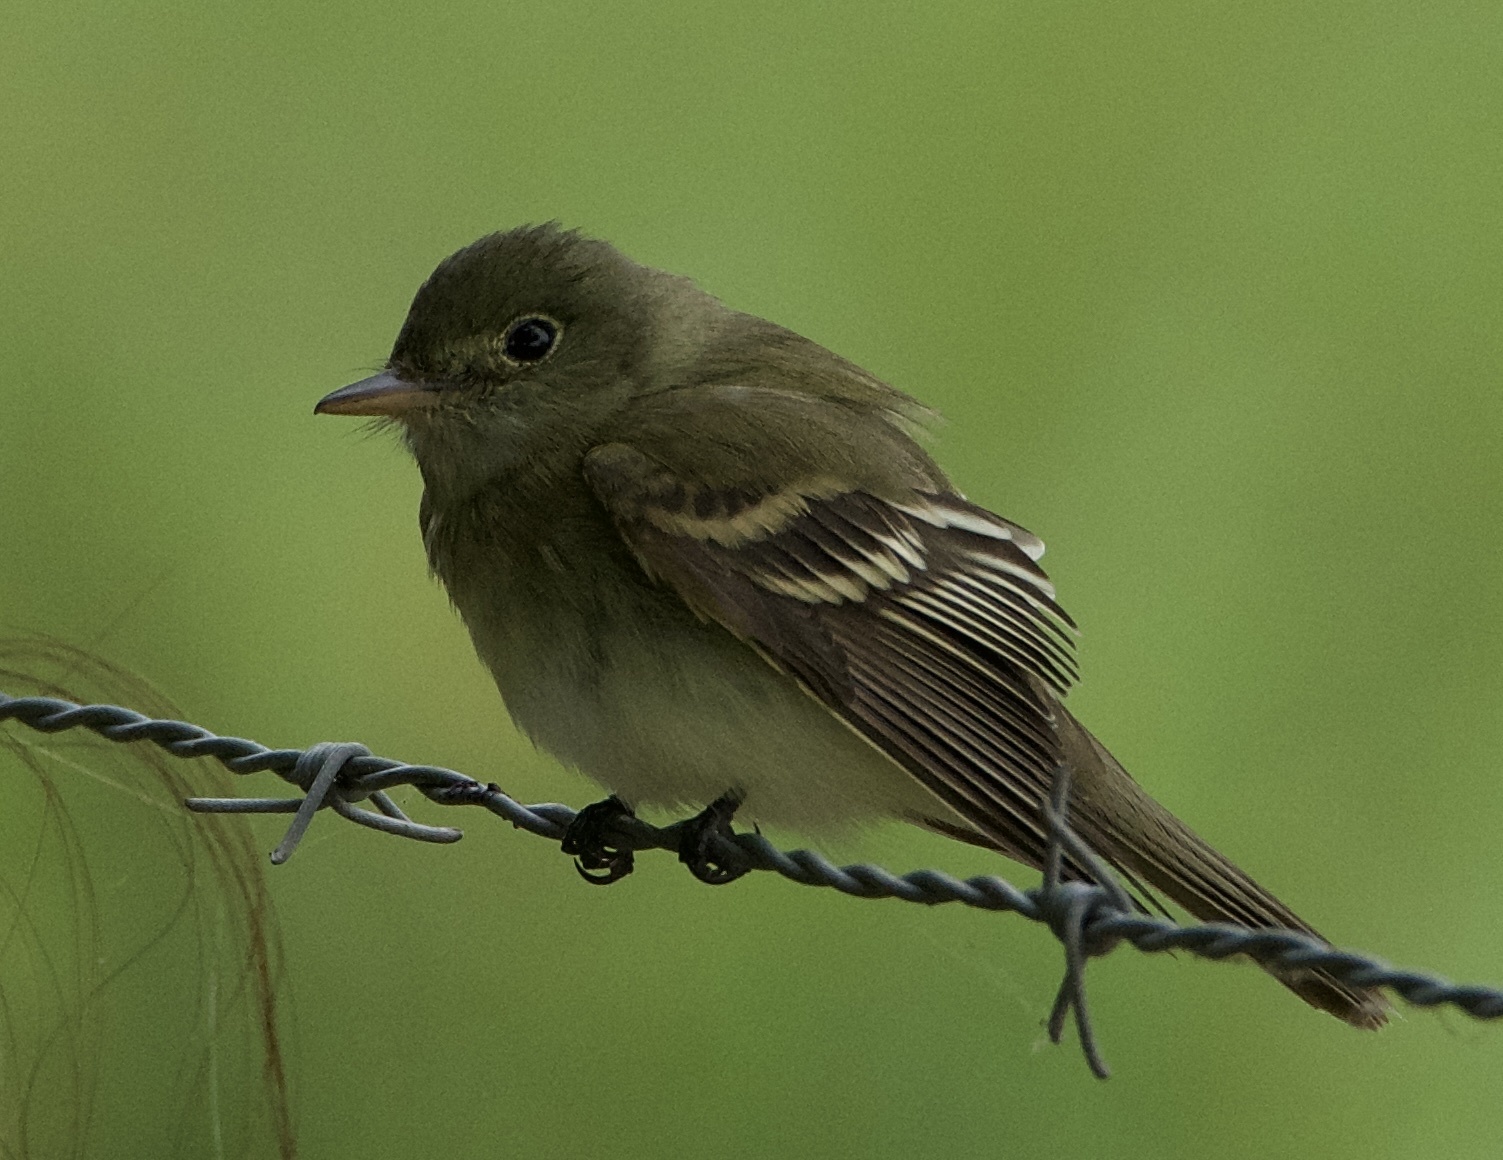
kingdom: Animalia
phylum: Chordata
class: Aves
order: Passeriformes
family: Tyrannidae
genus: Empidonax
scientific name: Empidonax virescens
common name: Acadian flycatcher
